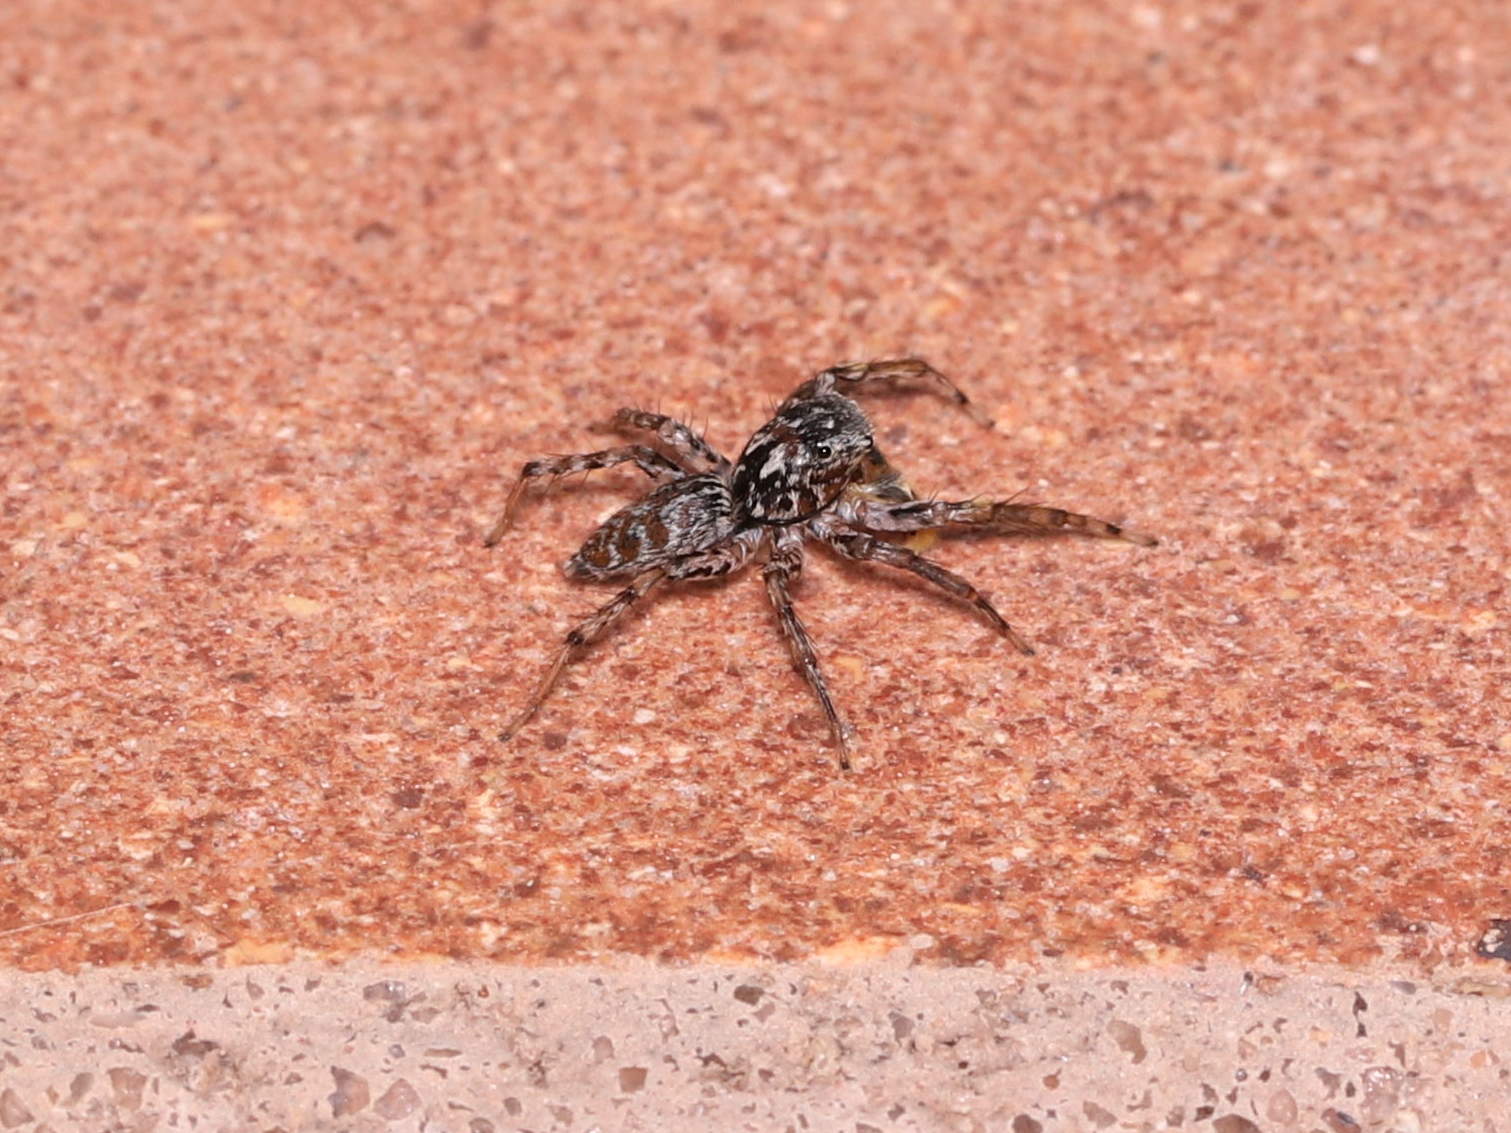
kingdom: Animalia
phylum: Arthropoda
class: Arachnida
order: Araneae
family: Salticidae
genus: Maevia
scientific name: Maevia inclemens
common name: Dimorphic jumper
